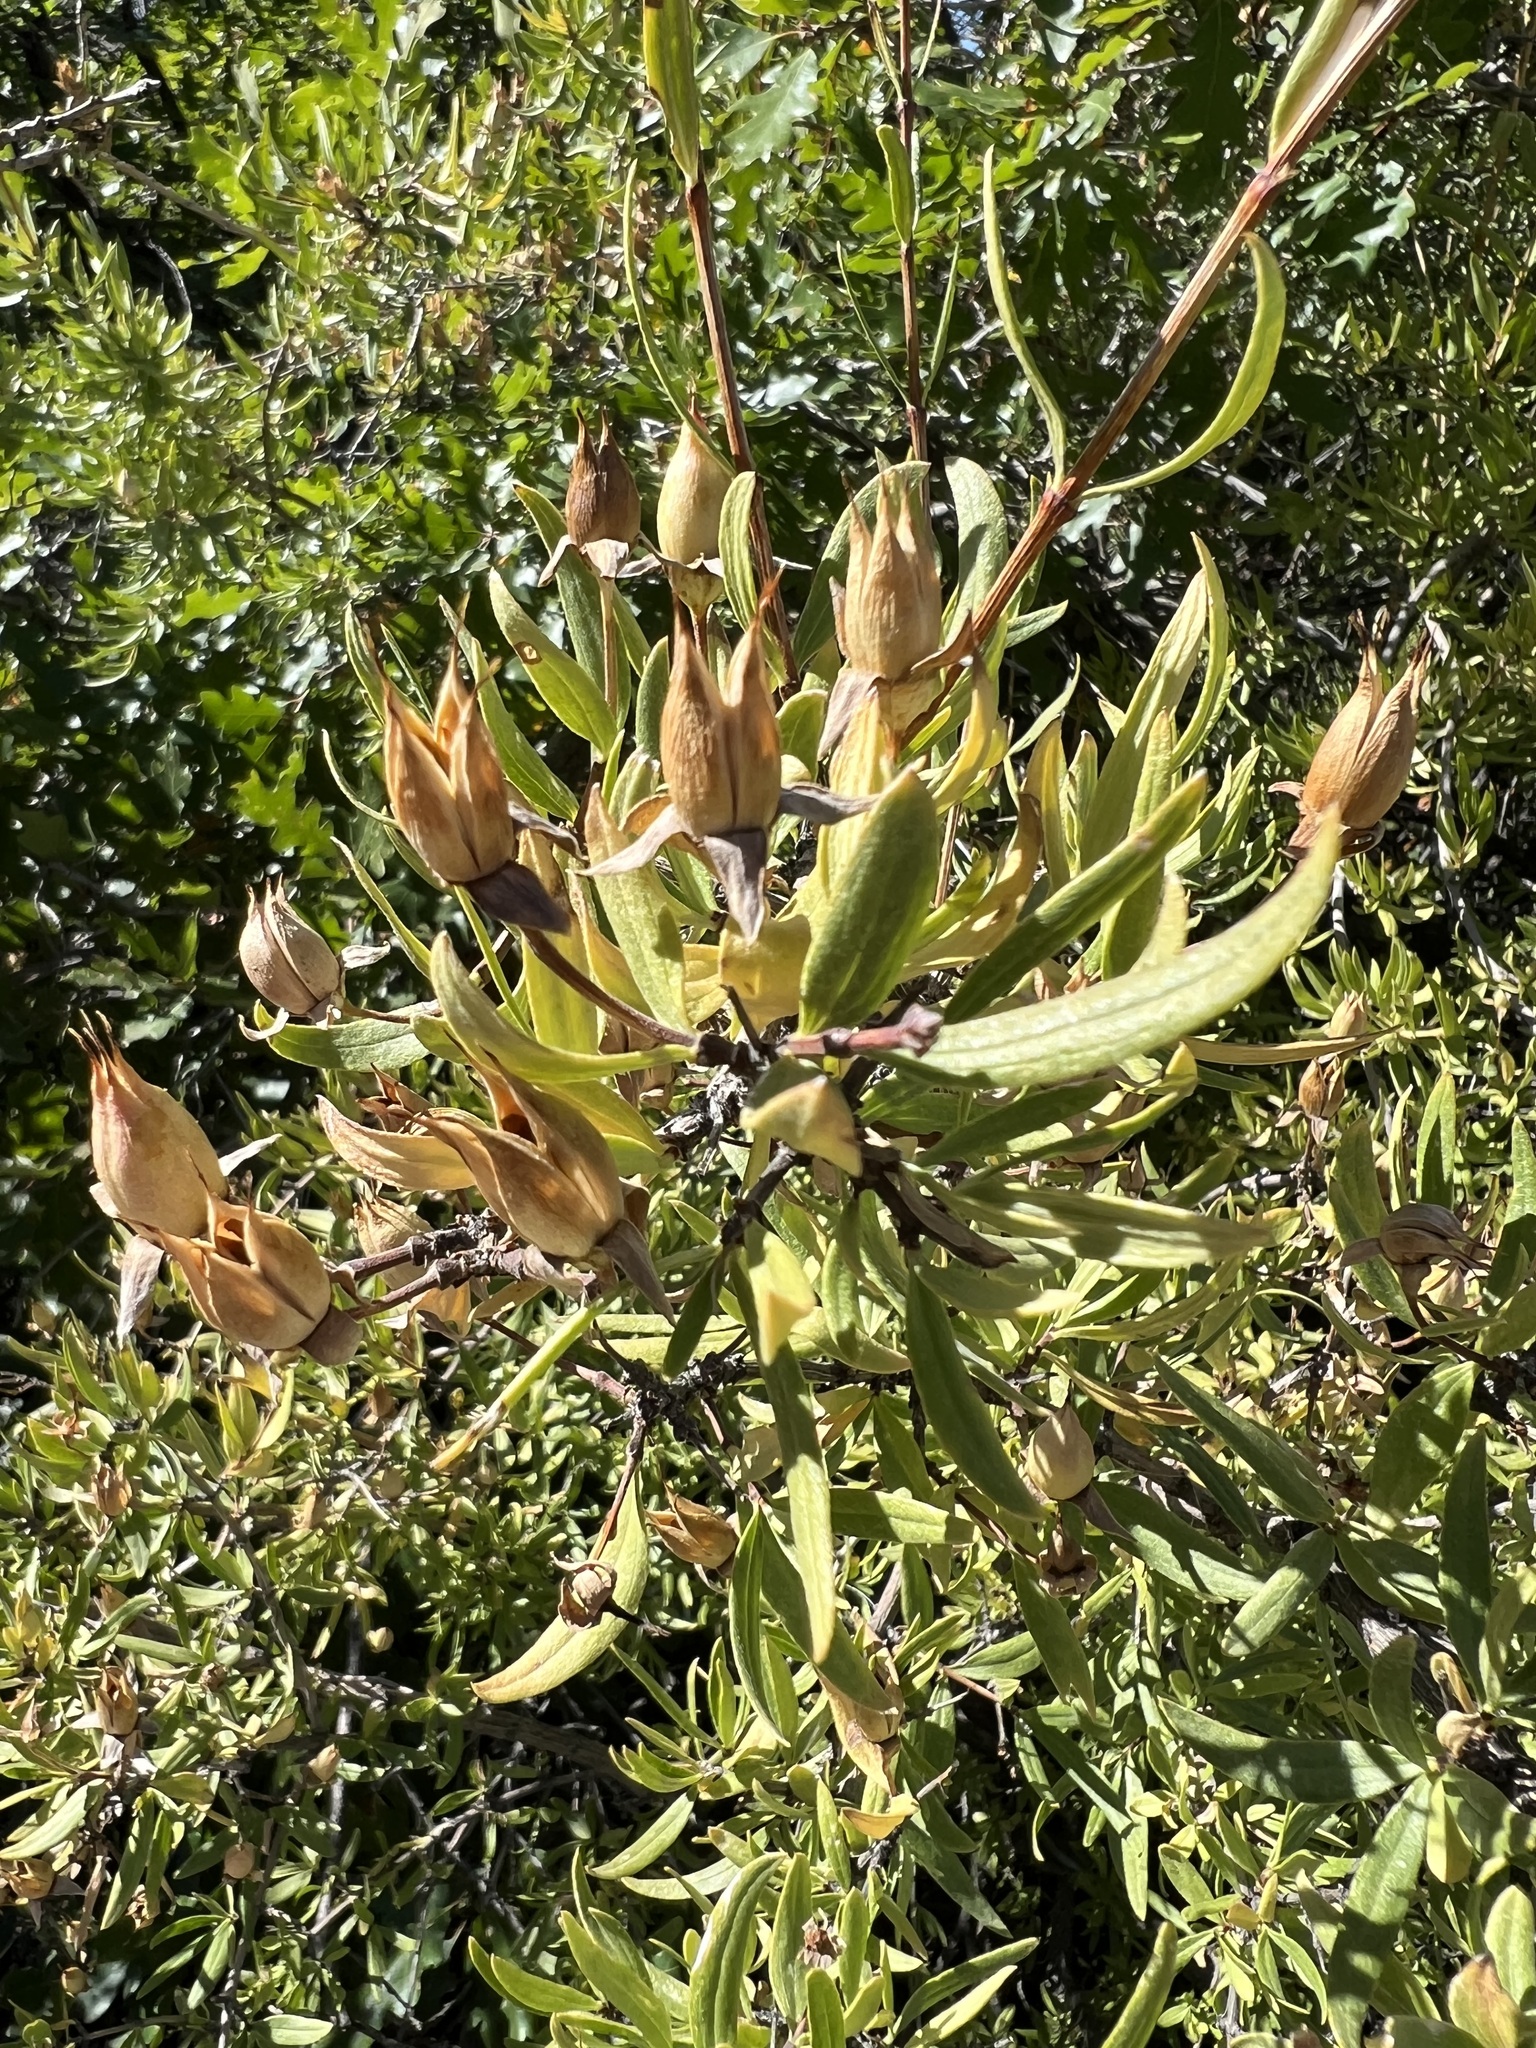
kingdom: Plantae
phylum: Tracheophyta
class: Magnoliopsida
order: Cornales
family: Hydrangeaceae
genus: Fendlera
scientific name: Fendlera rupicola
